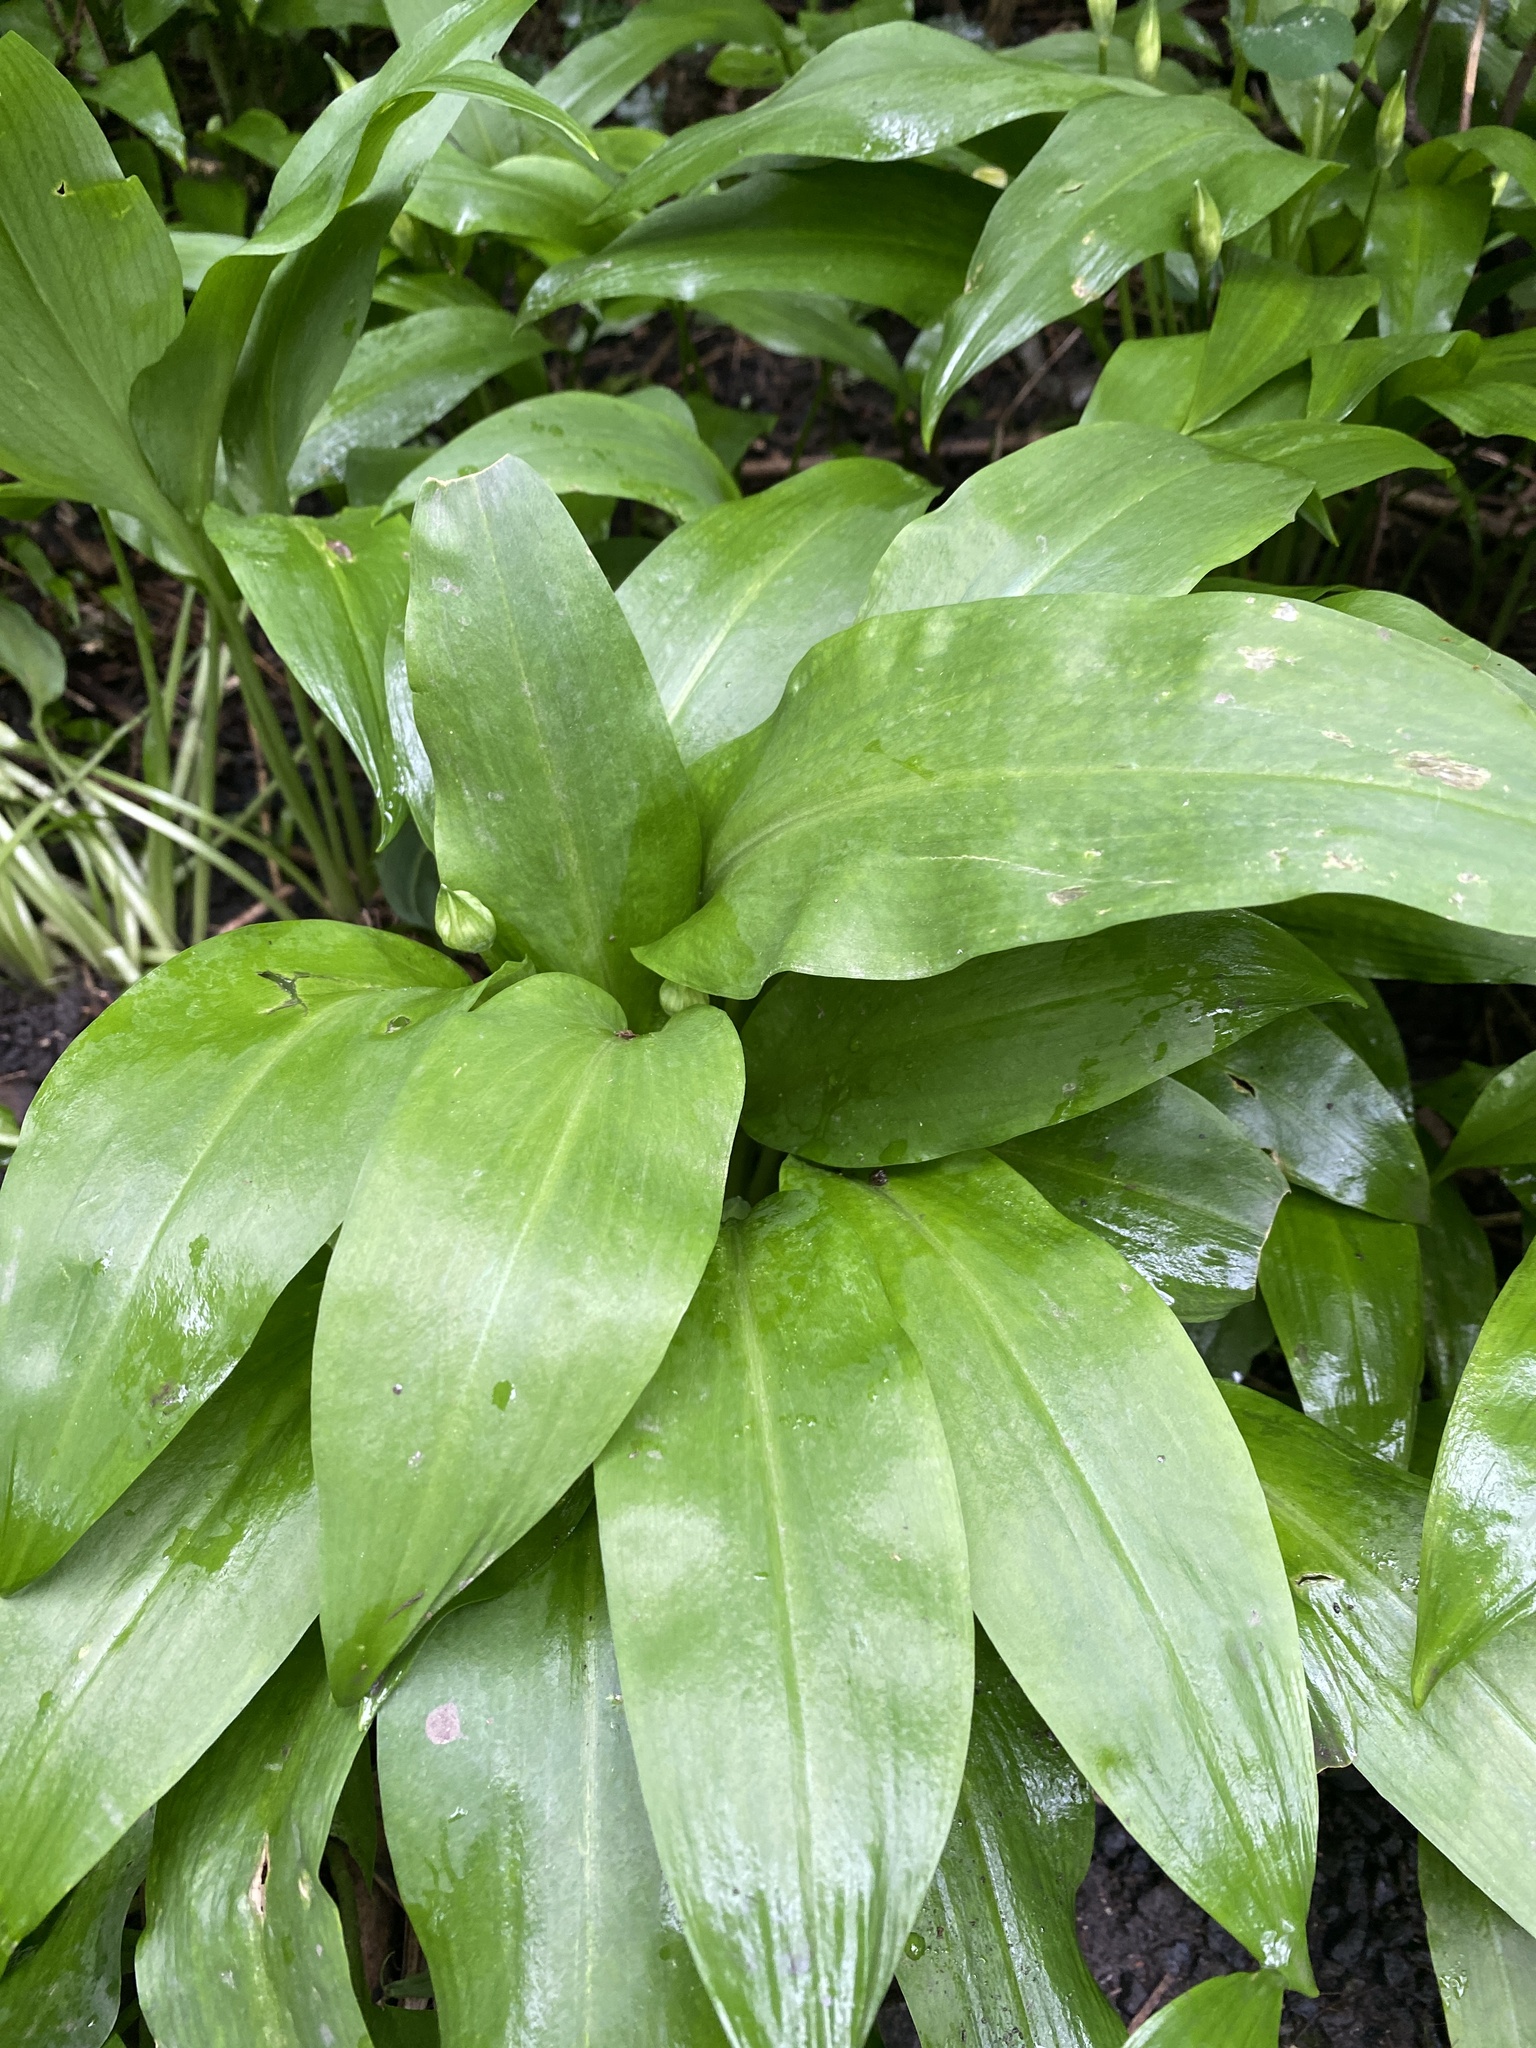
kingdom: Plantae
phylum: Tracheophyta
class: Liliopsida
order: Asparagales
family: Amaryllidaceae
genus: Allium
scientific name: Allium ursinum
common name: Ramsons
